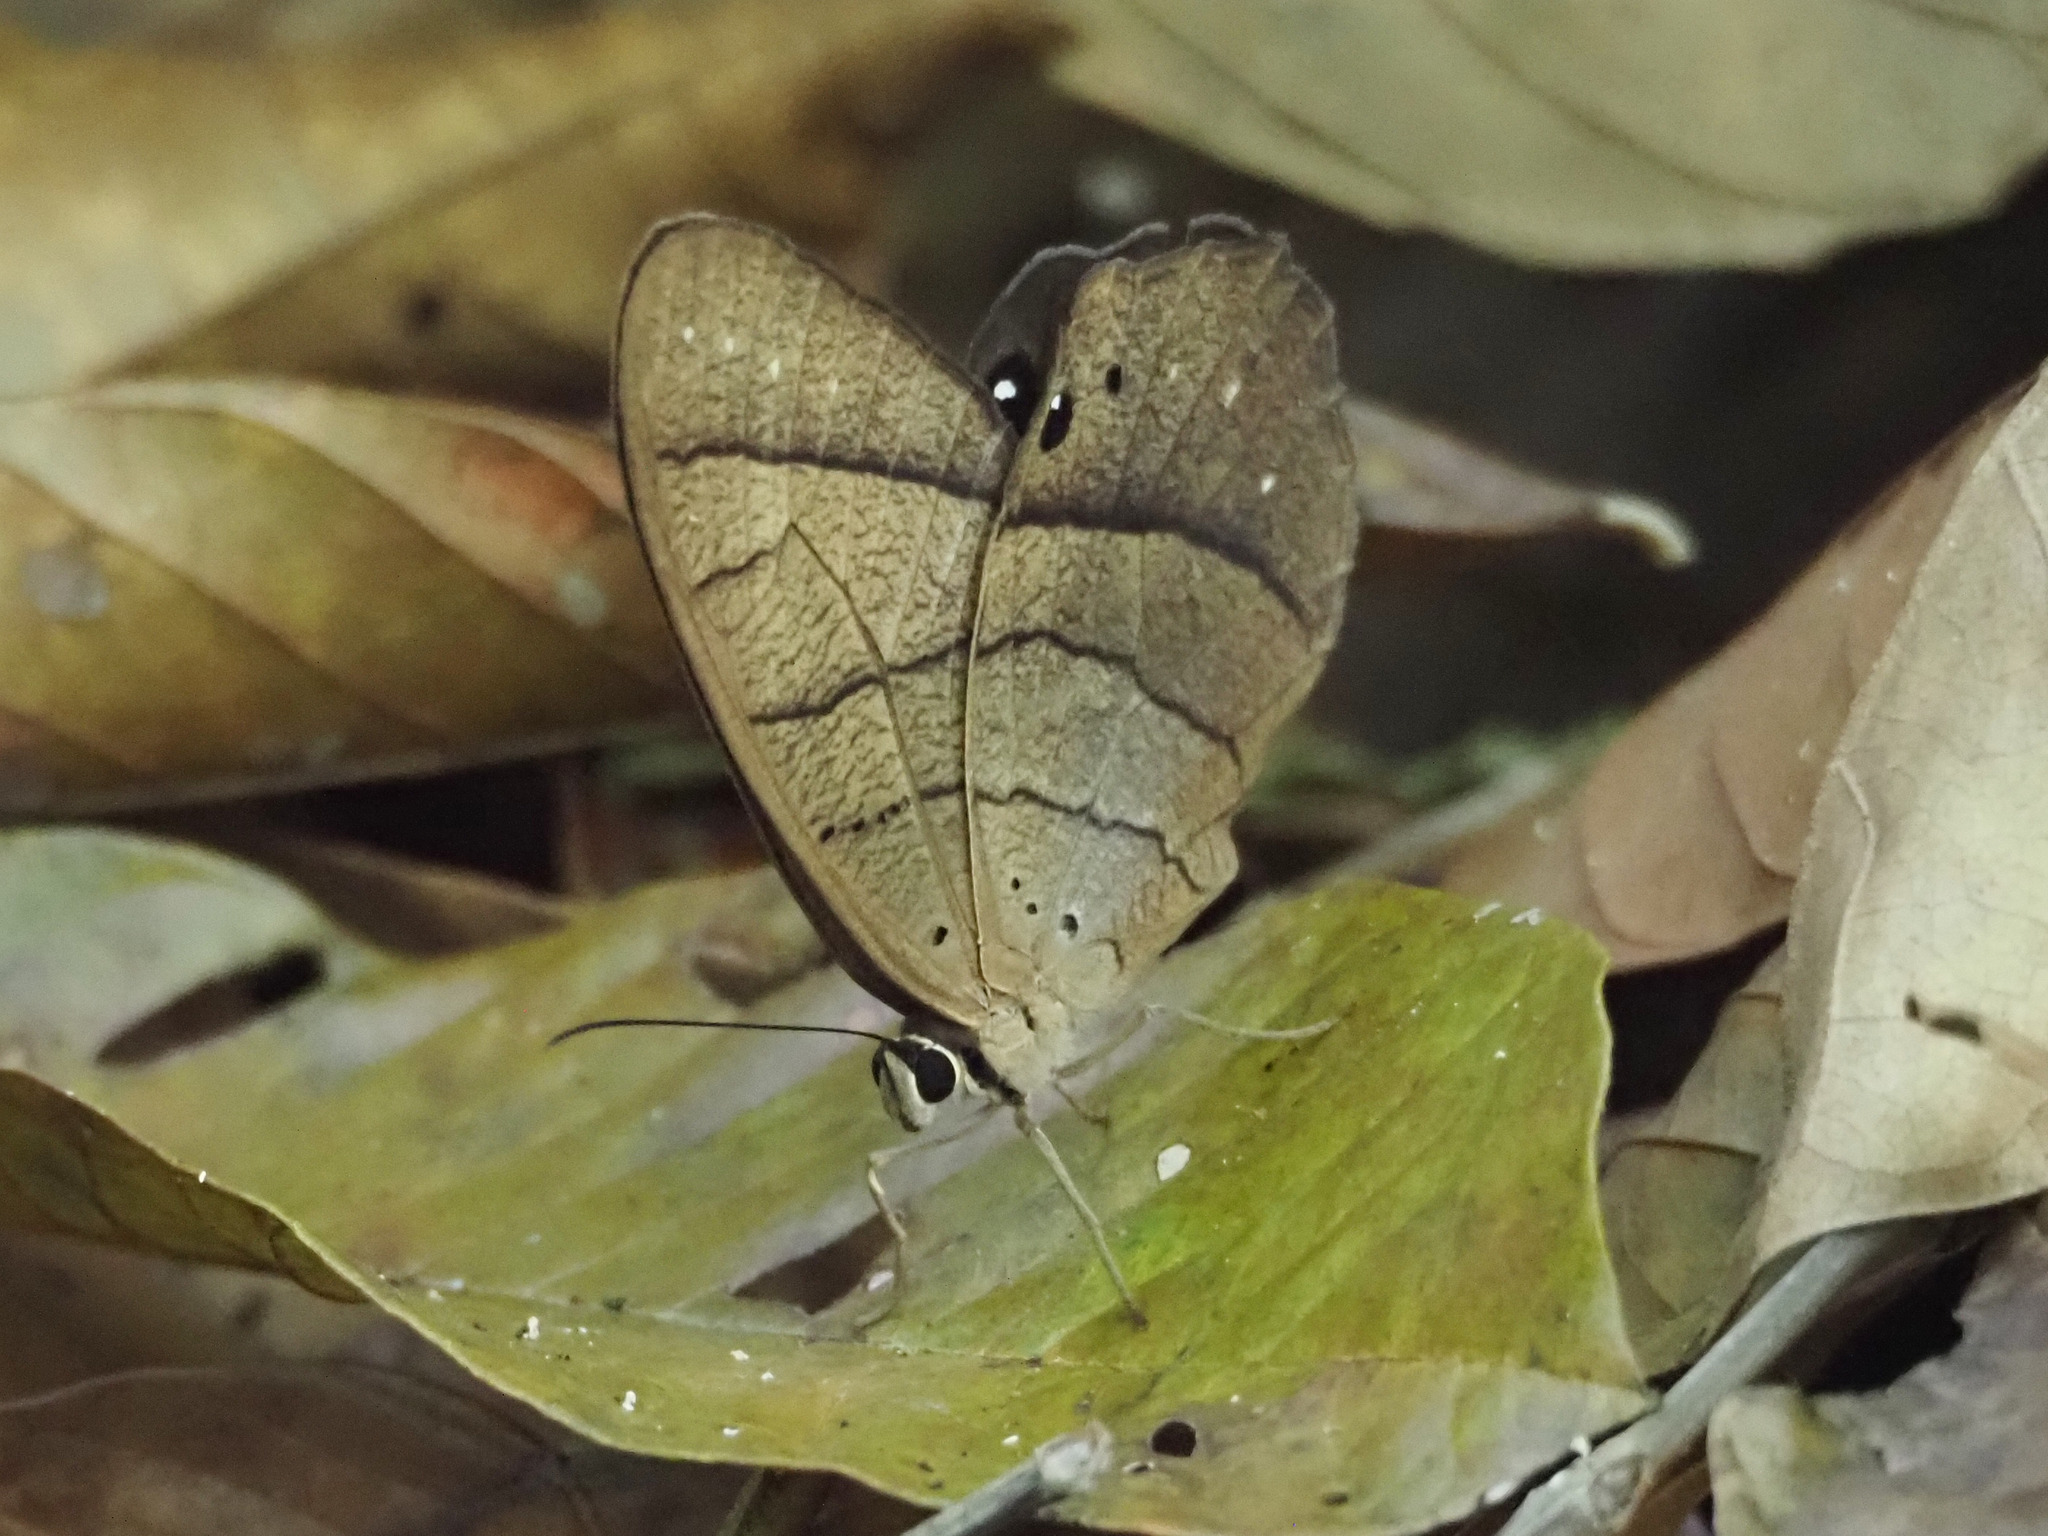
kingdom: Animalia
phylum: Arthropoda
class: Insecta
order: Lepidoptera
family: Nymphalidae
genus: Pierella
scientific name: Pierella luna
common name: Moon satyr
